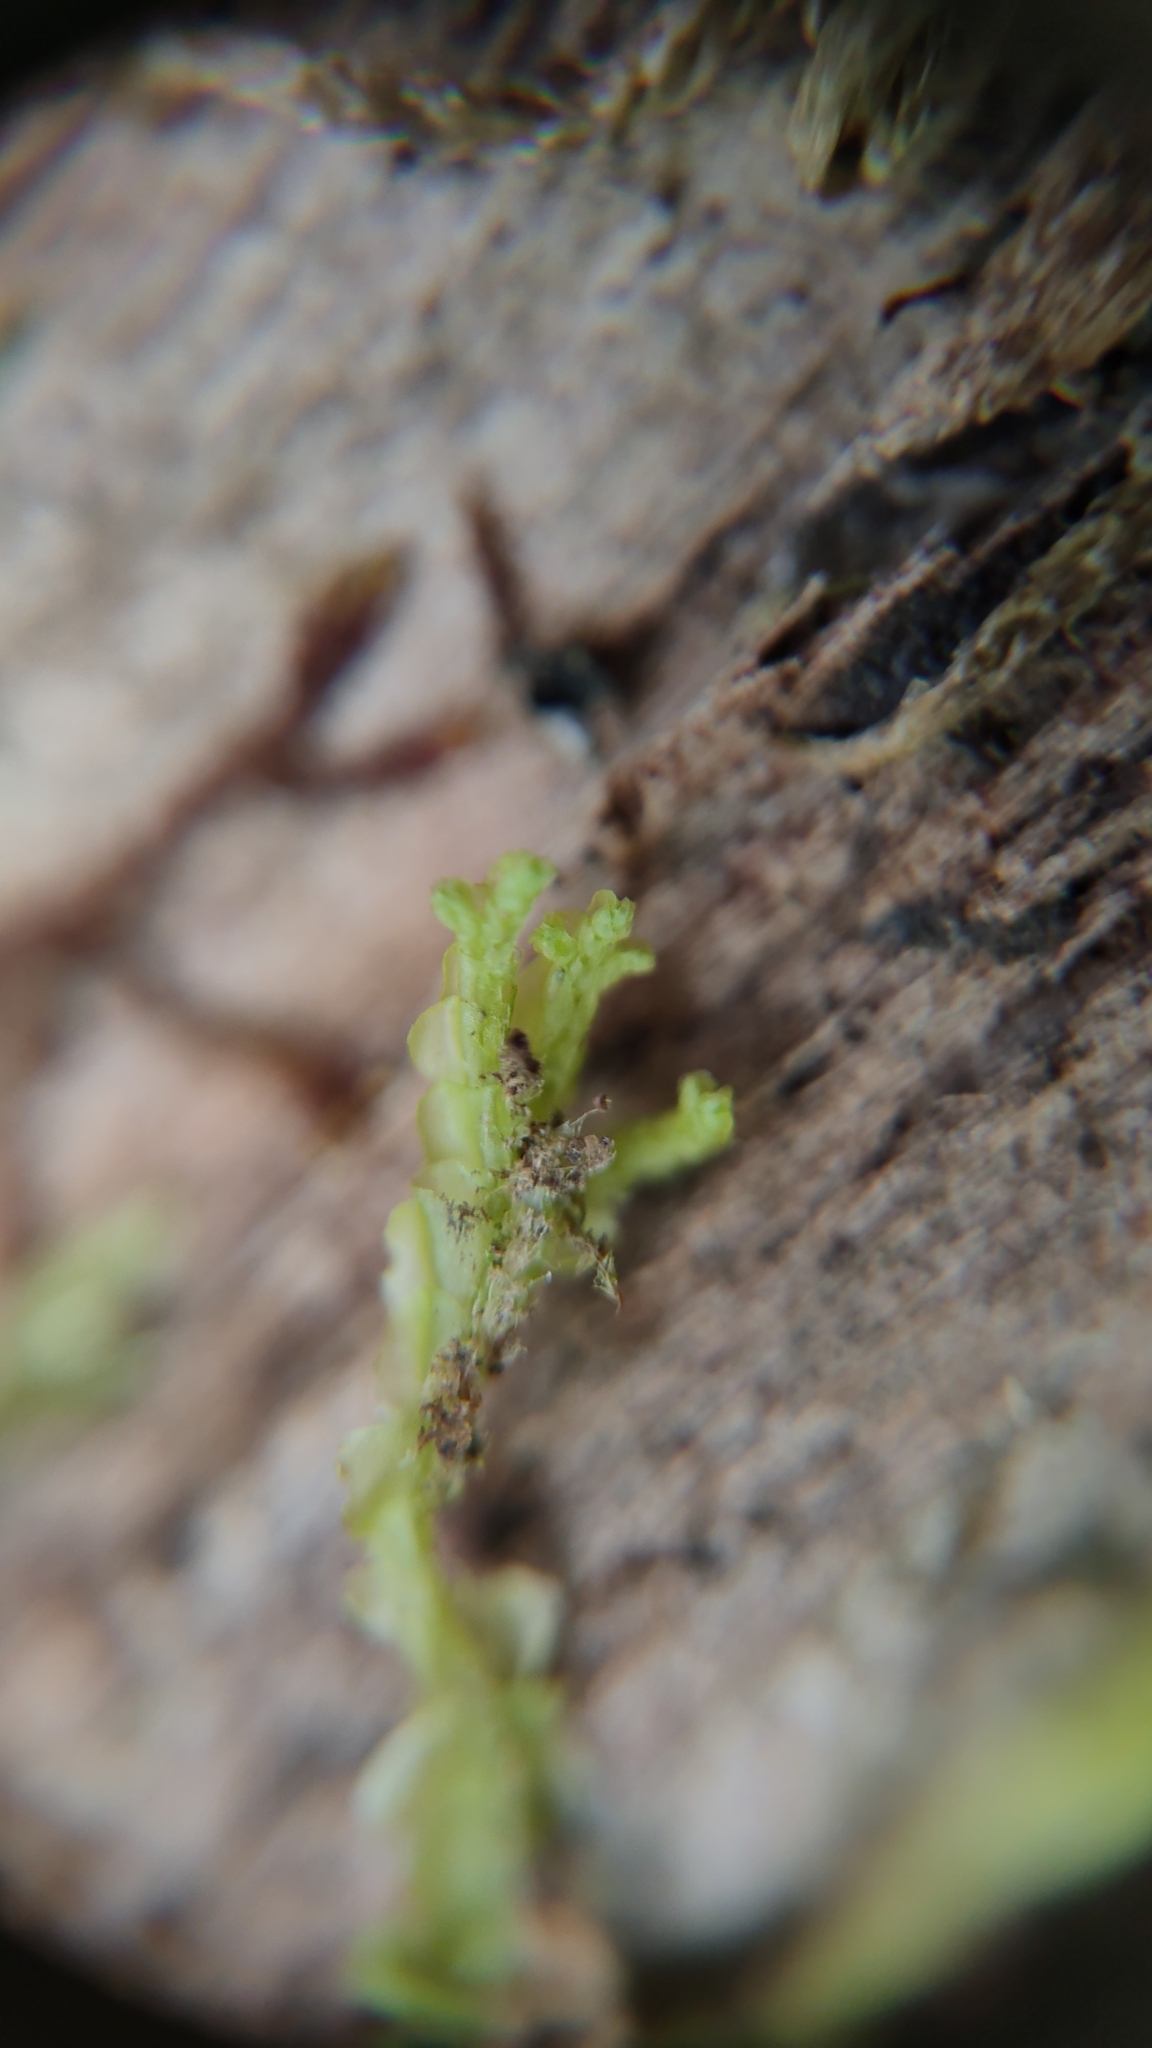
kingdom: Plantae
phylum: Marchantiophyta
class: Jungermanniopsida
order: Jungermanniales
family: Adelanthaceae
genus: Syzygiella
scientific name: Syzygiella autumnalis
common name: Jameson's liverwort
